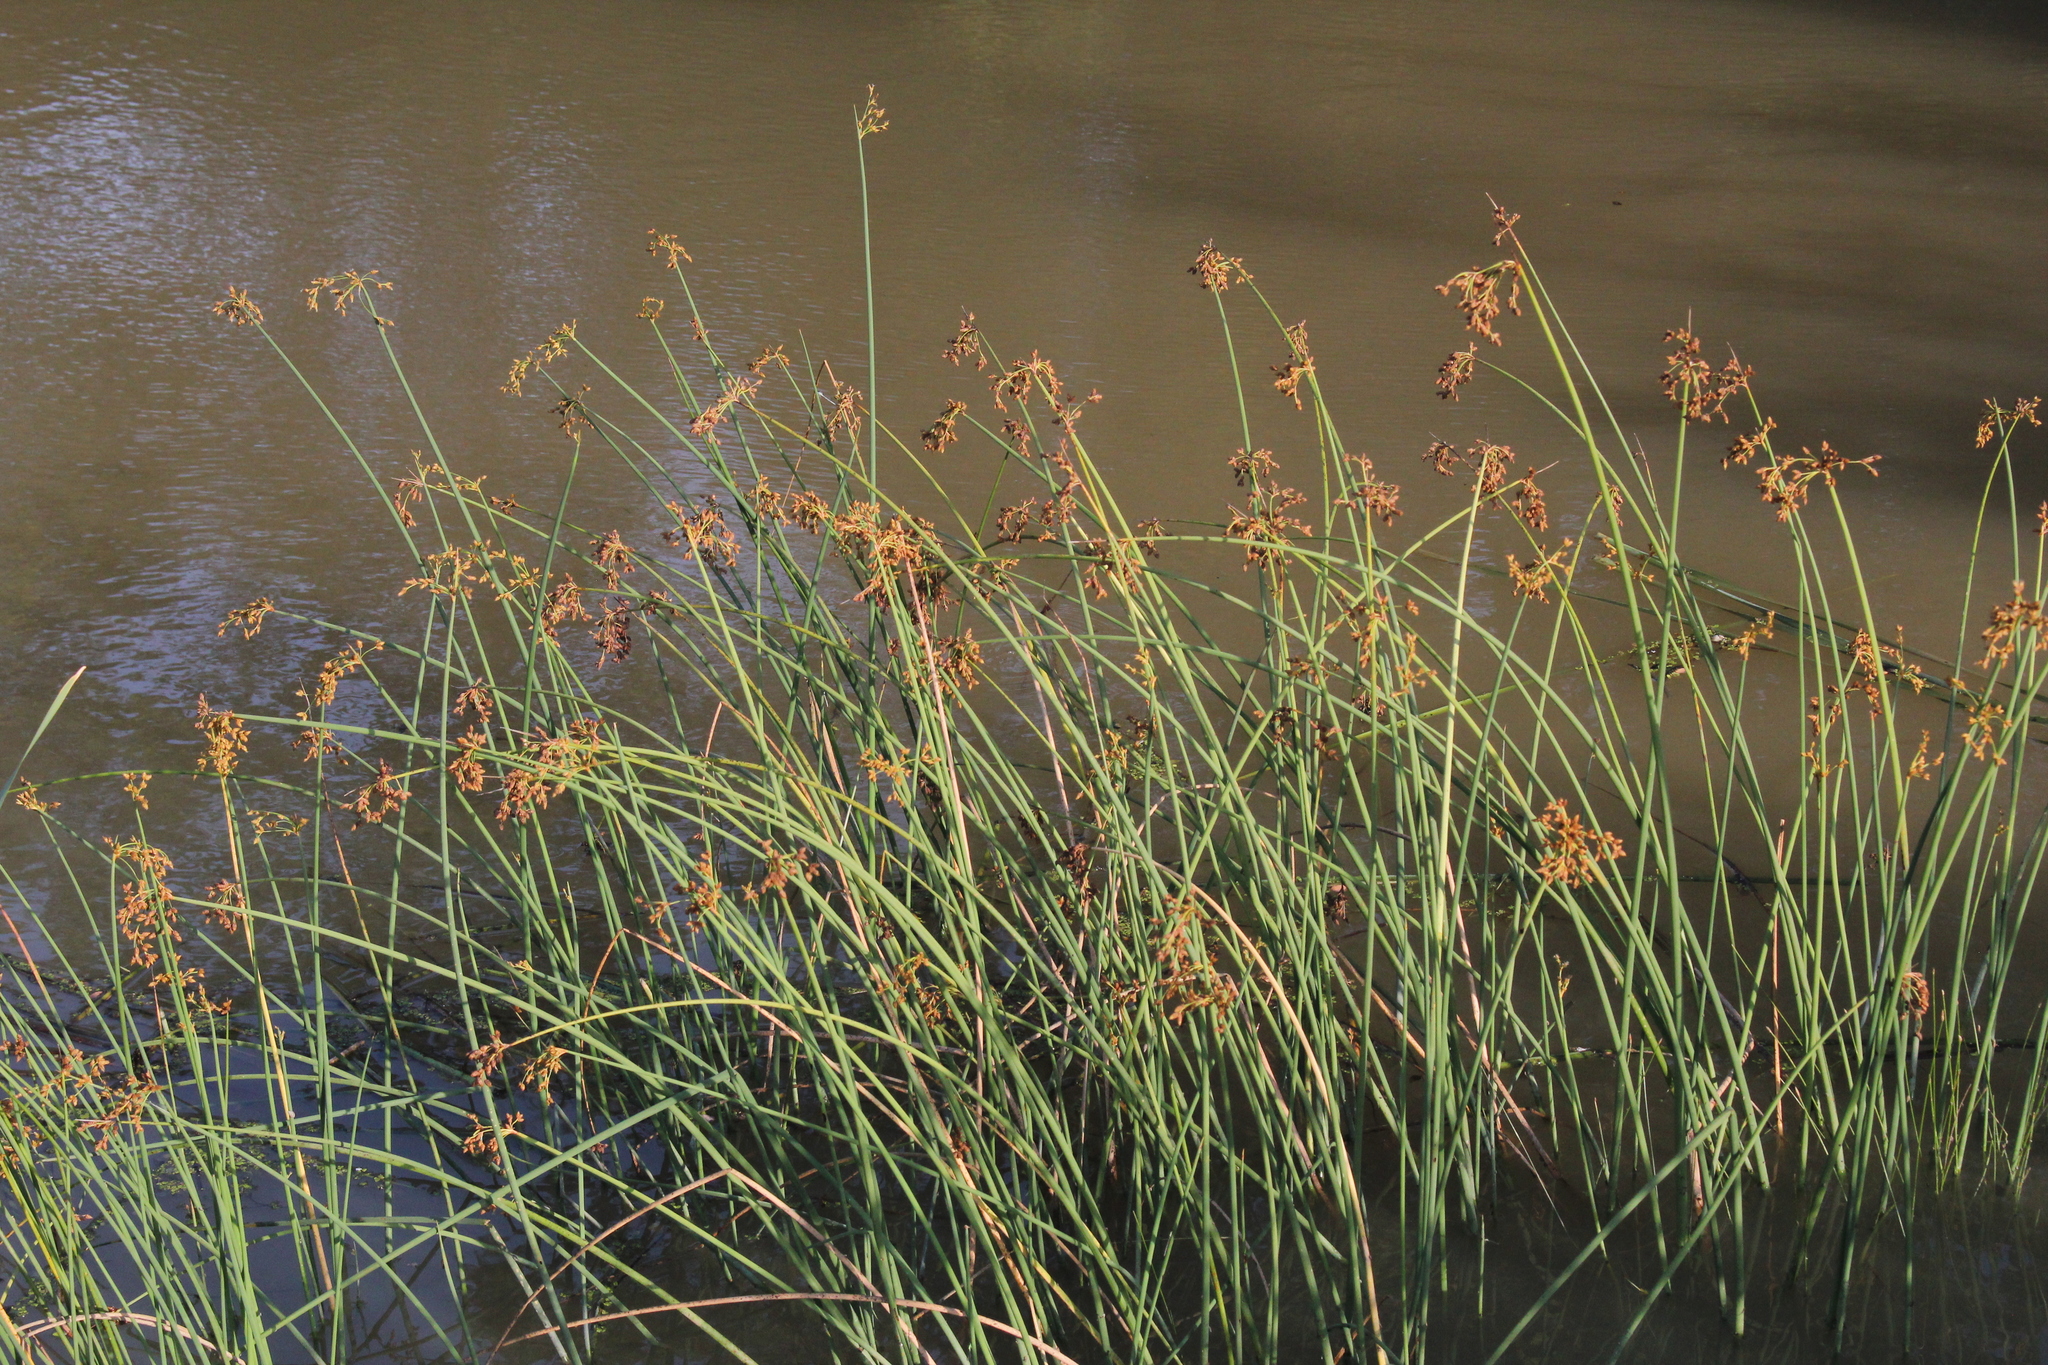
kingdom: Plantae
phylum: Tracheophyta
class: Liliopsida
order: Poales
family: Cyperaceae
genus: Schoenoplectus
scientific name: Schoenoplectus tabernaemontani
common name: Grey club-rush
